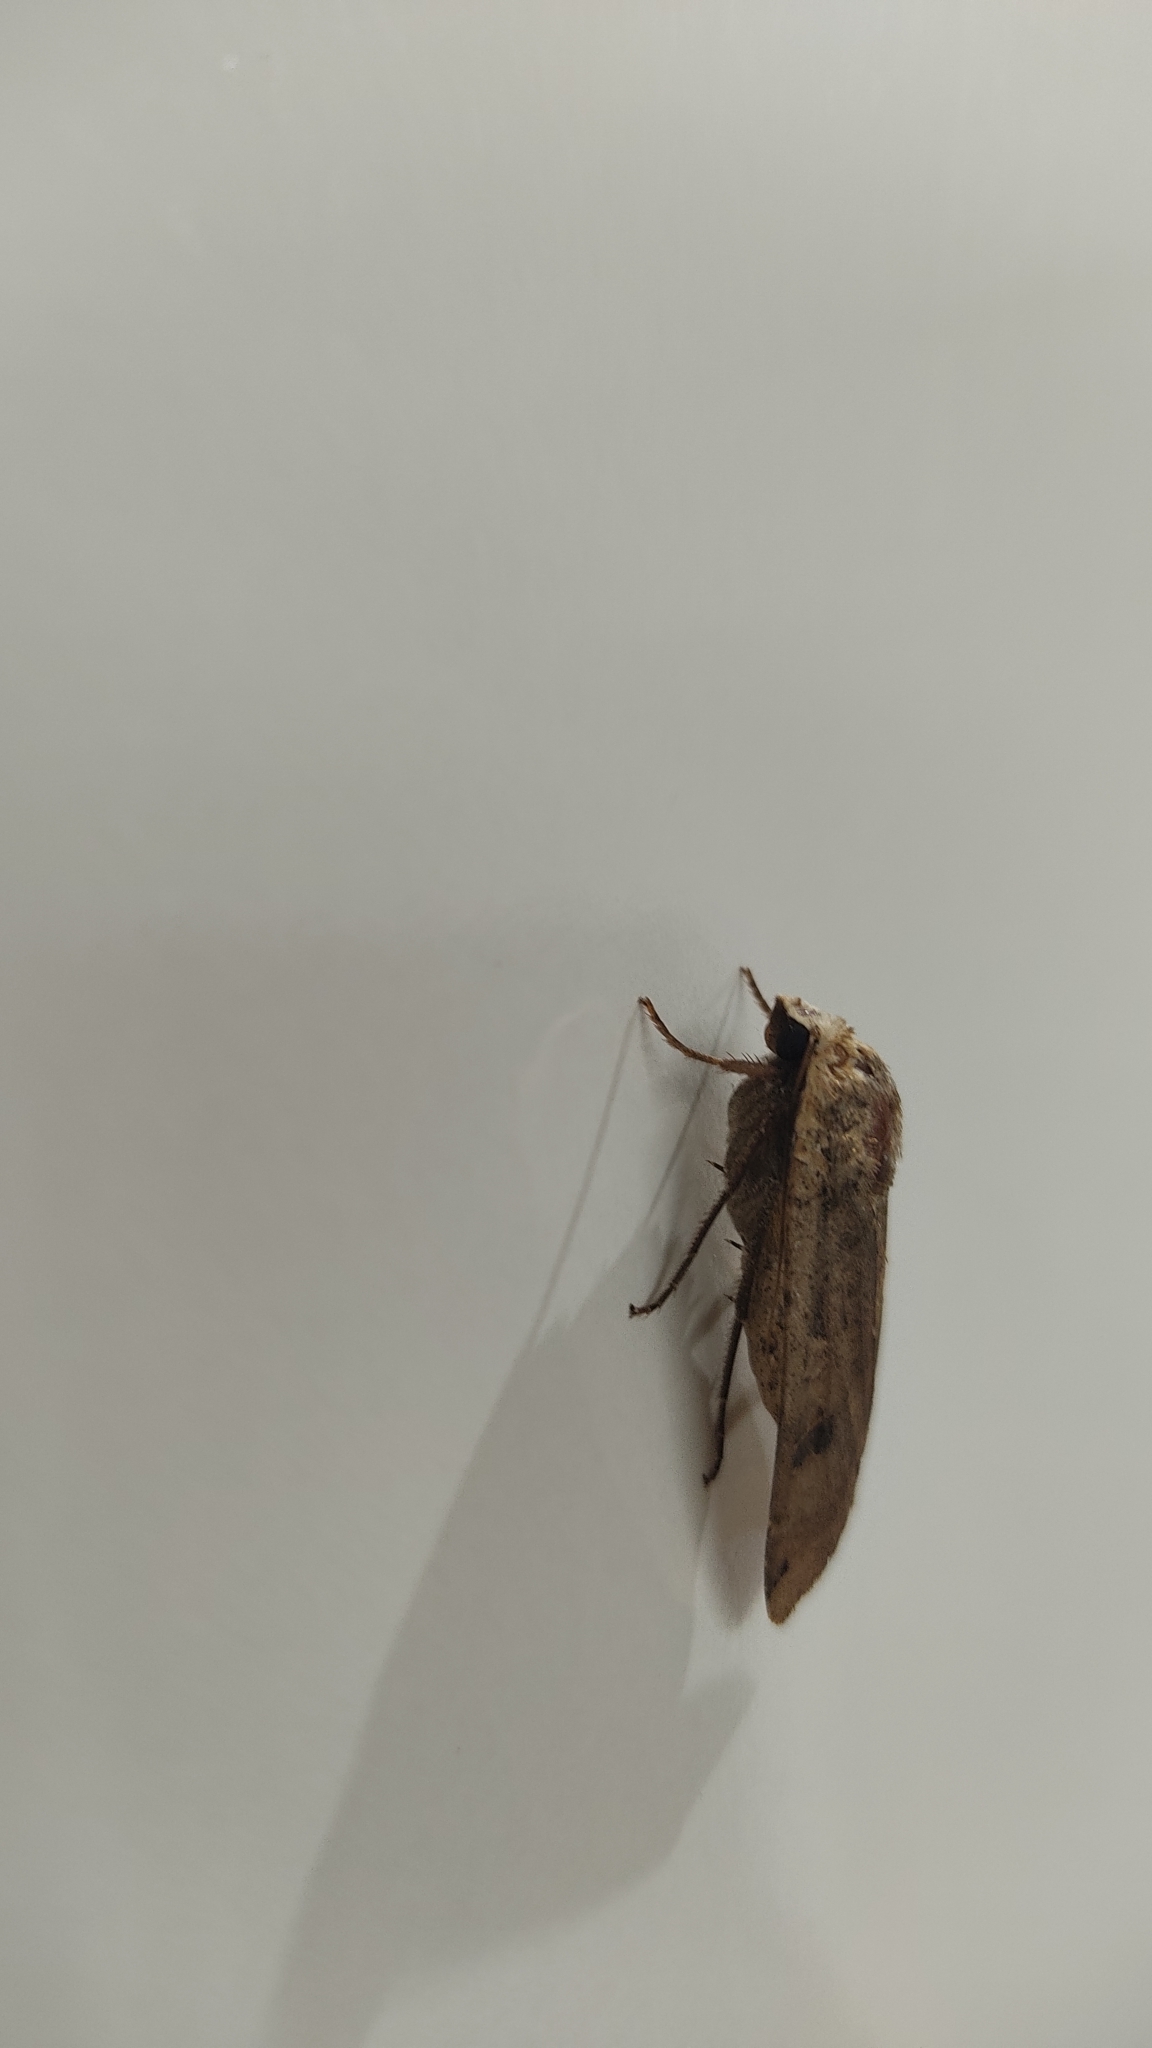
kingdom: Animalia
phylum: Arthropoda
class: Insecta
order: Lepidoptera
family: Noctuidae
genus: Noctua
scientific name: Noctua pronuba
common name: Large yellow underwing
